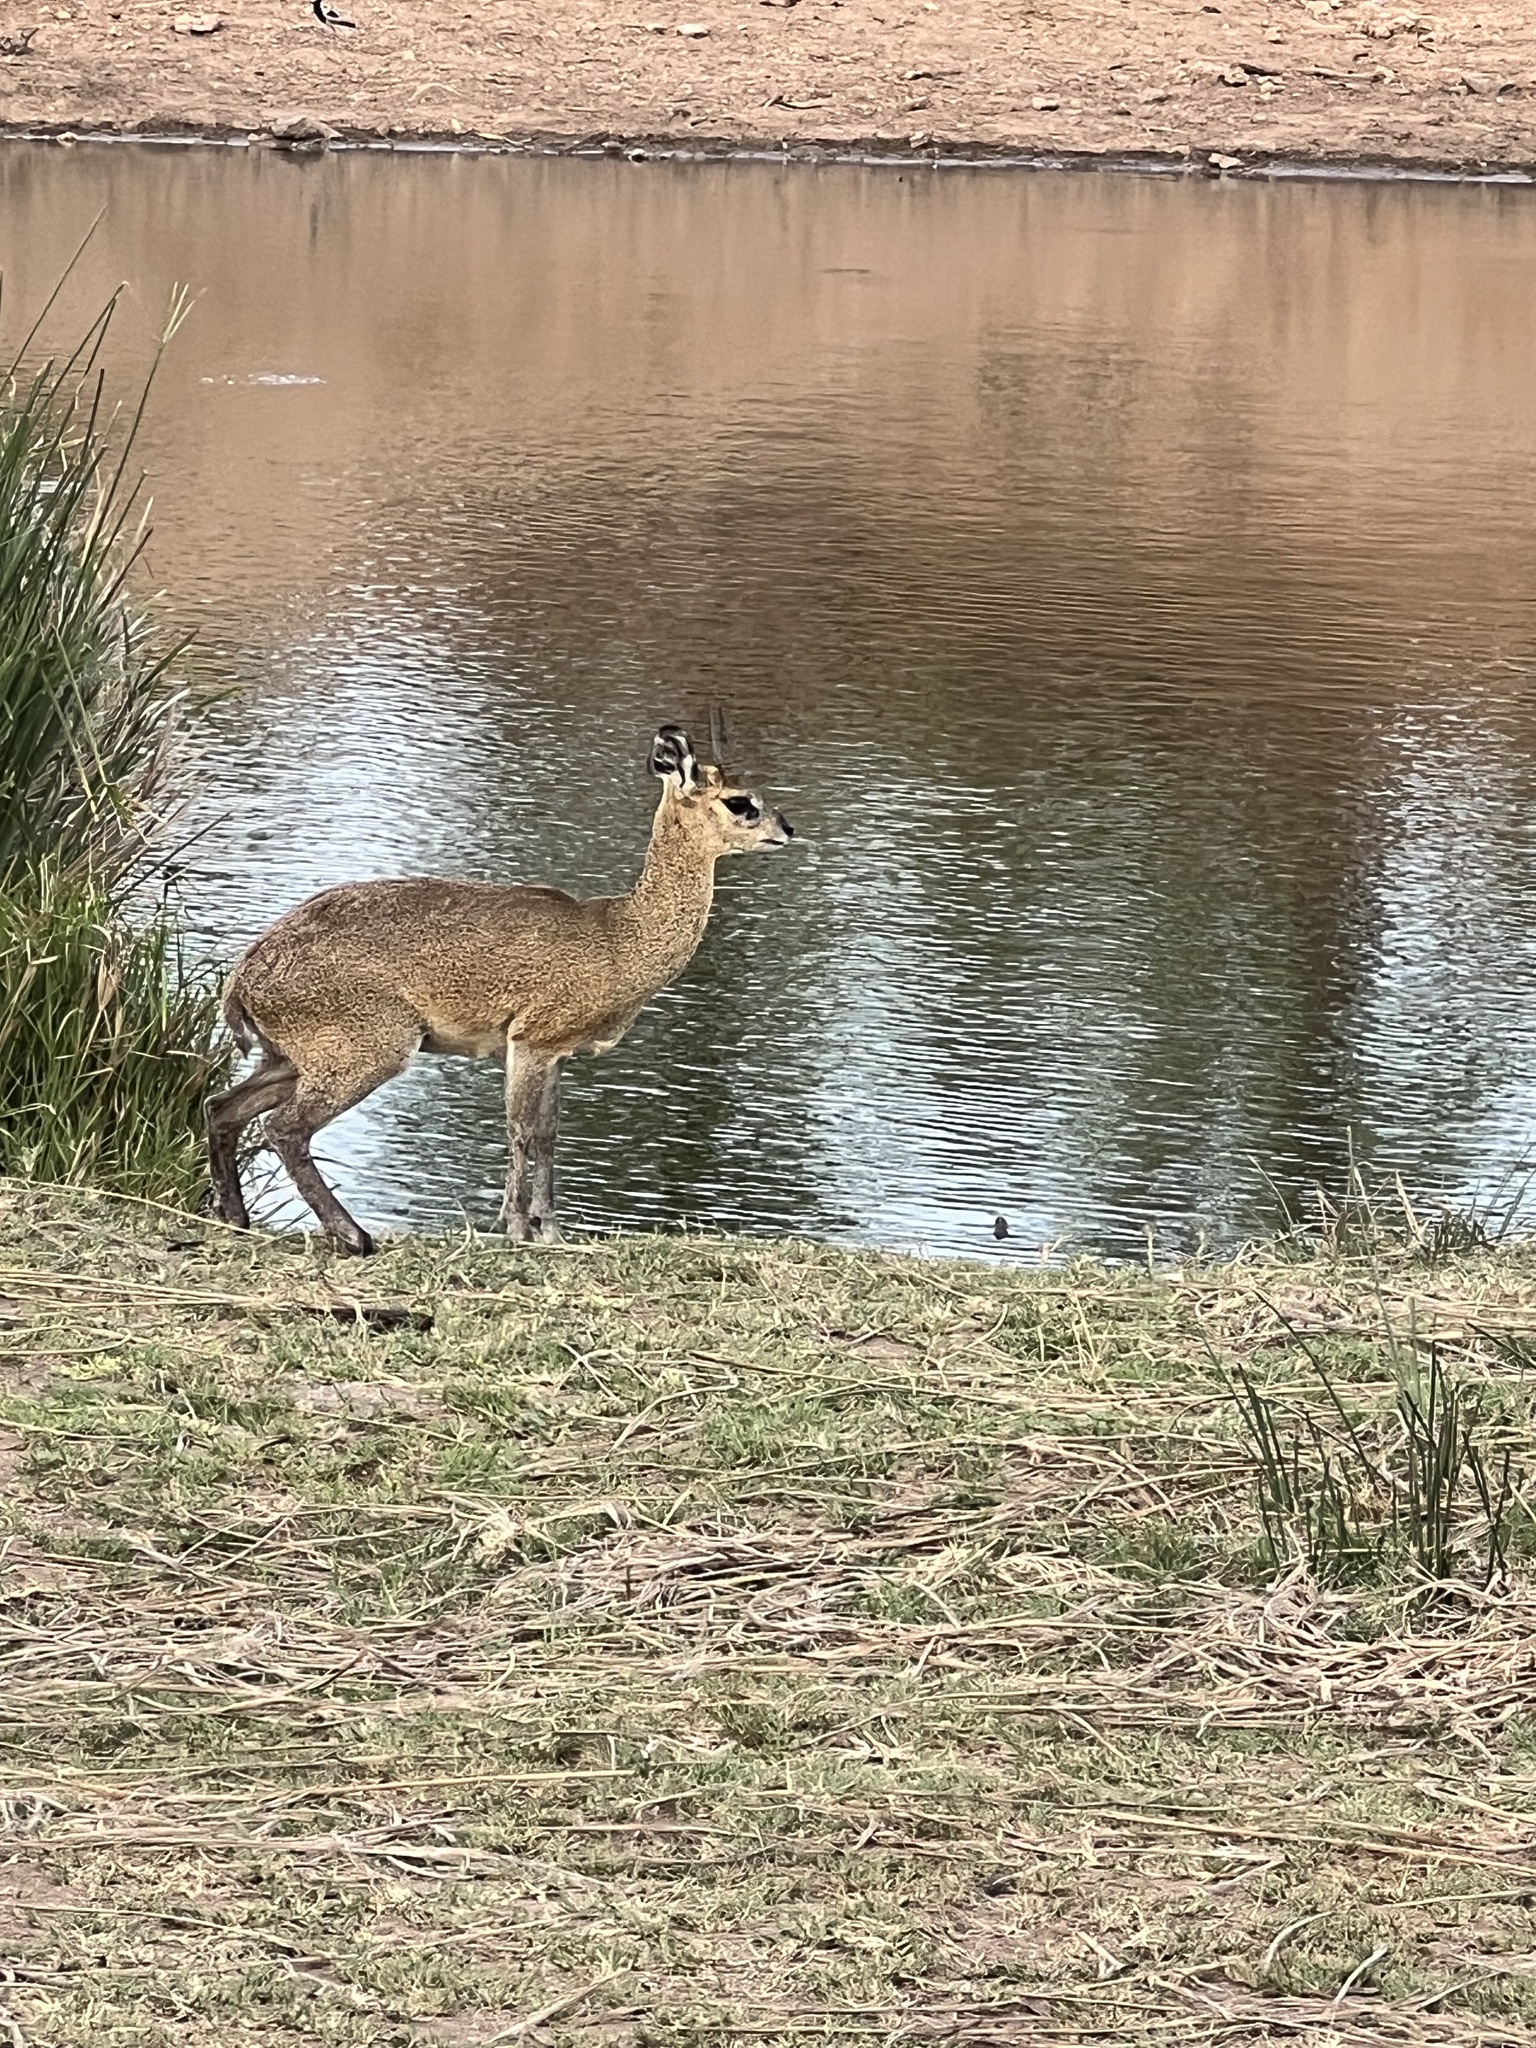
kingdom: Animalia
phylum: Chordata
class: Mammalia
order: Artiodactyla
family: Bovidae
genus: Oreotragus
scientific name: Oreotragus oreotragus
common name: Klipspringer
